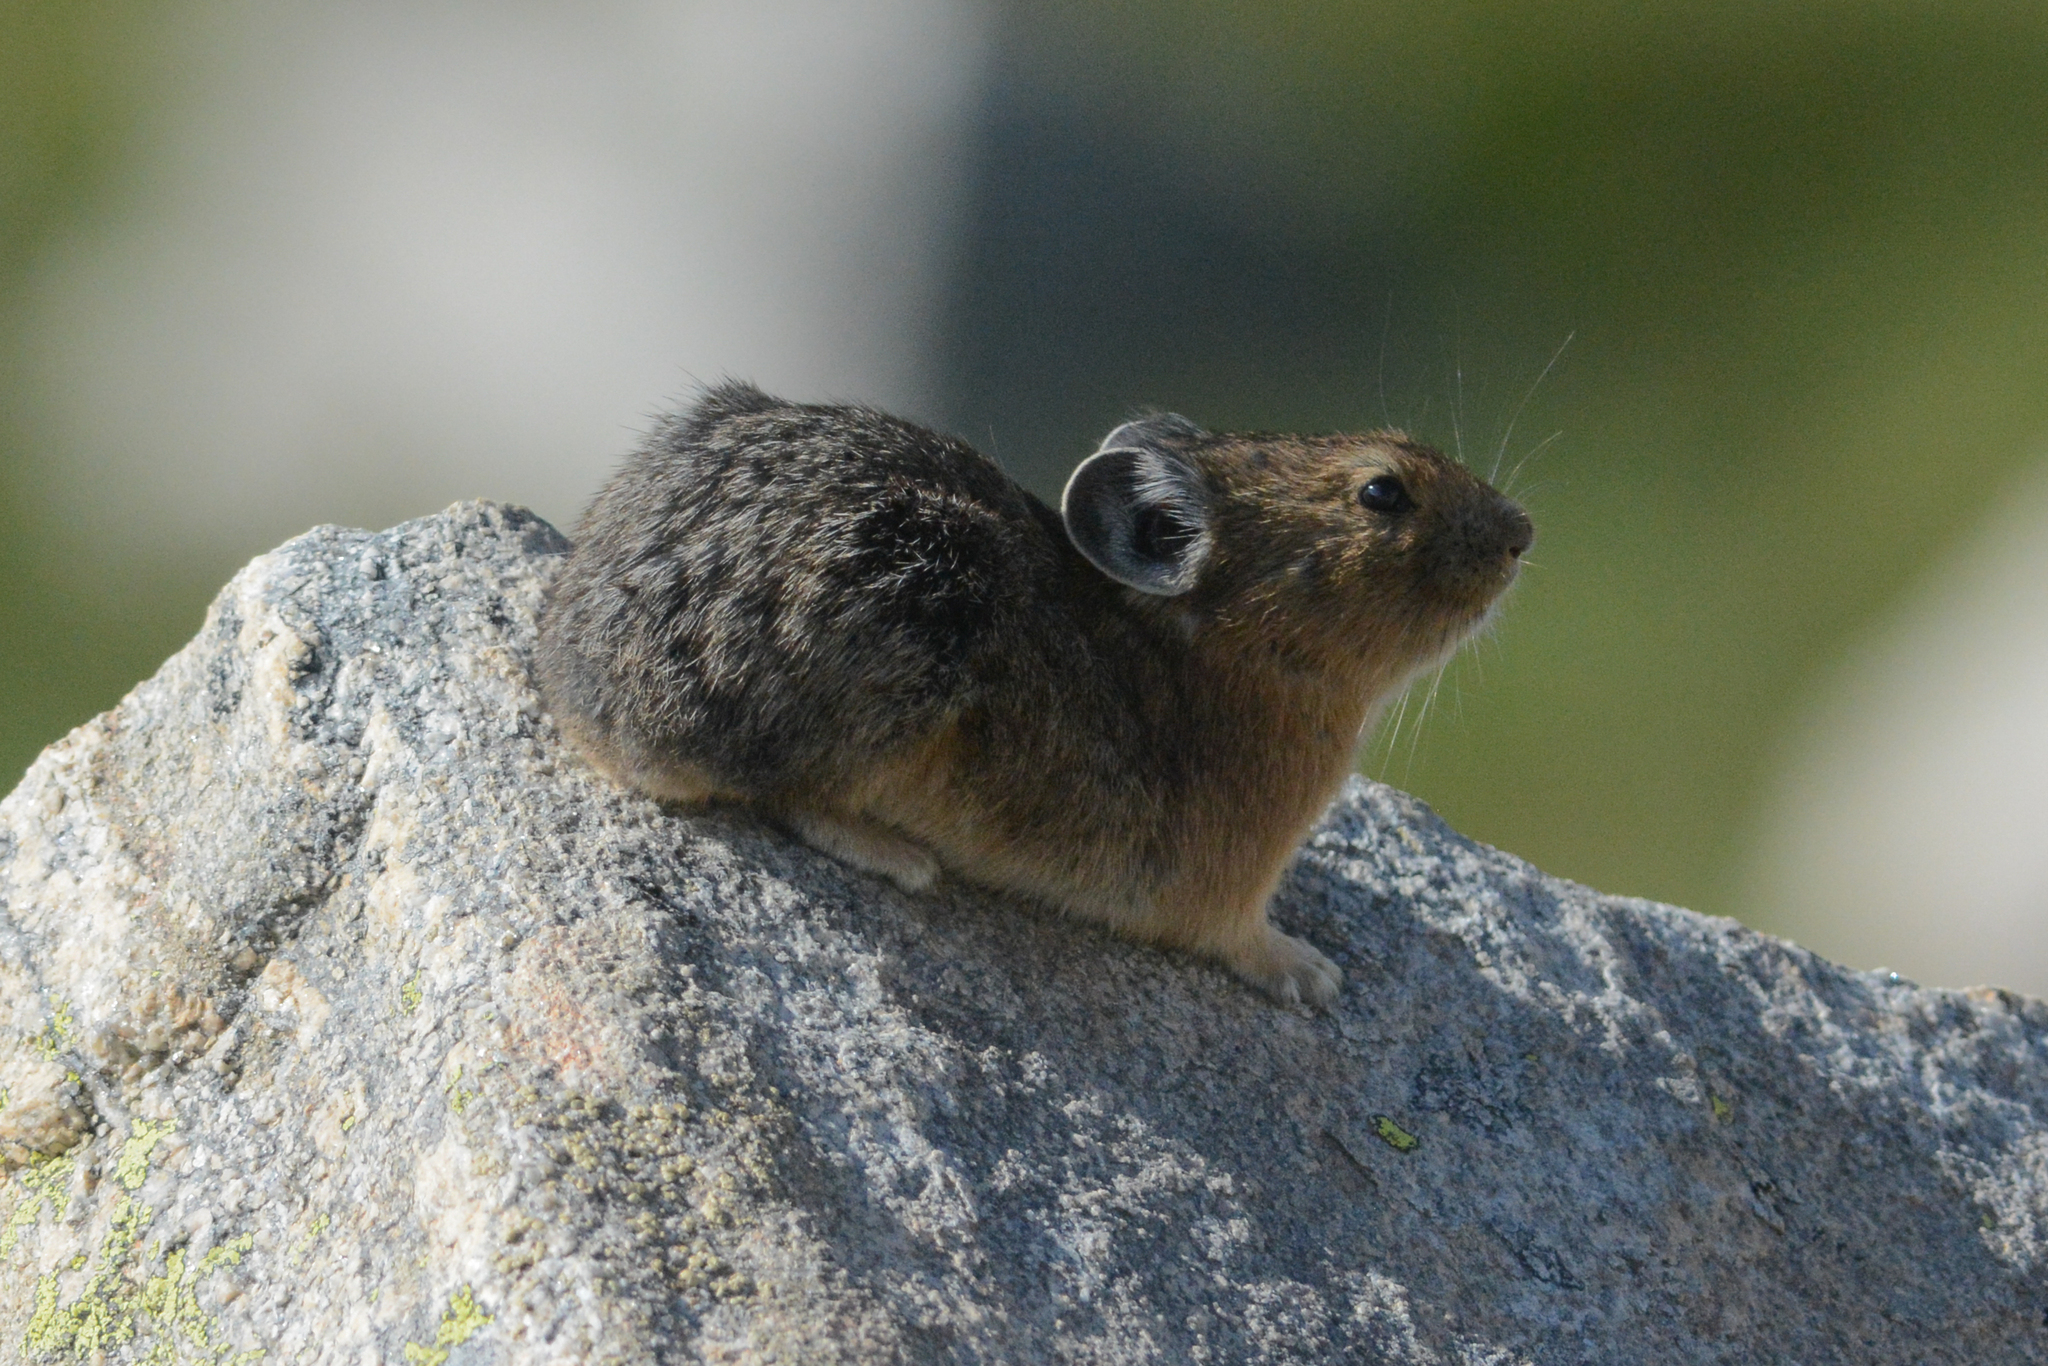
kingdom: Animalia
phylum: Chordata
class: Mammalia
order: Lagomorpha
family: Ochotonidae
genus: Ochotona
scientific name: Ochotona princeps
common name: American pika
